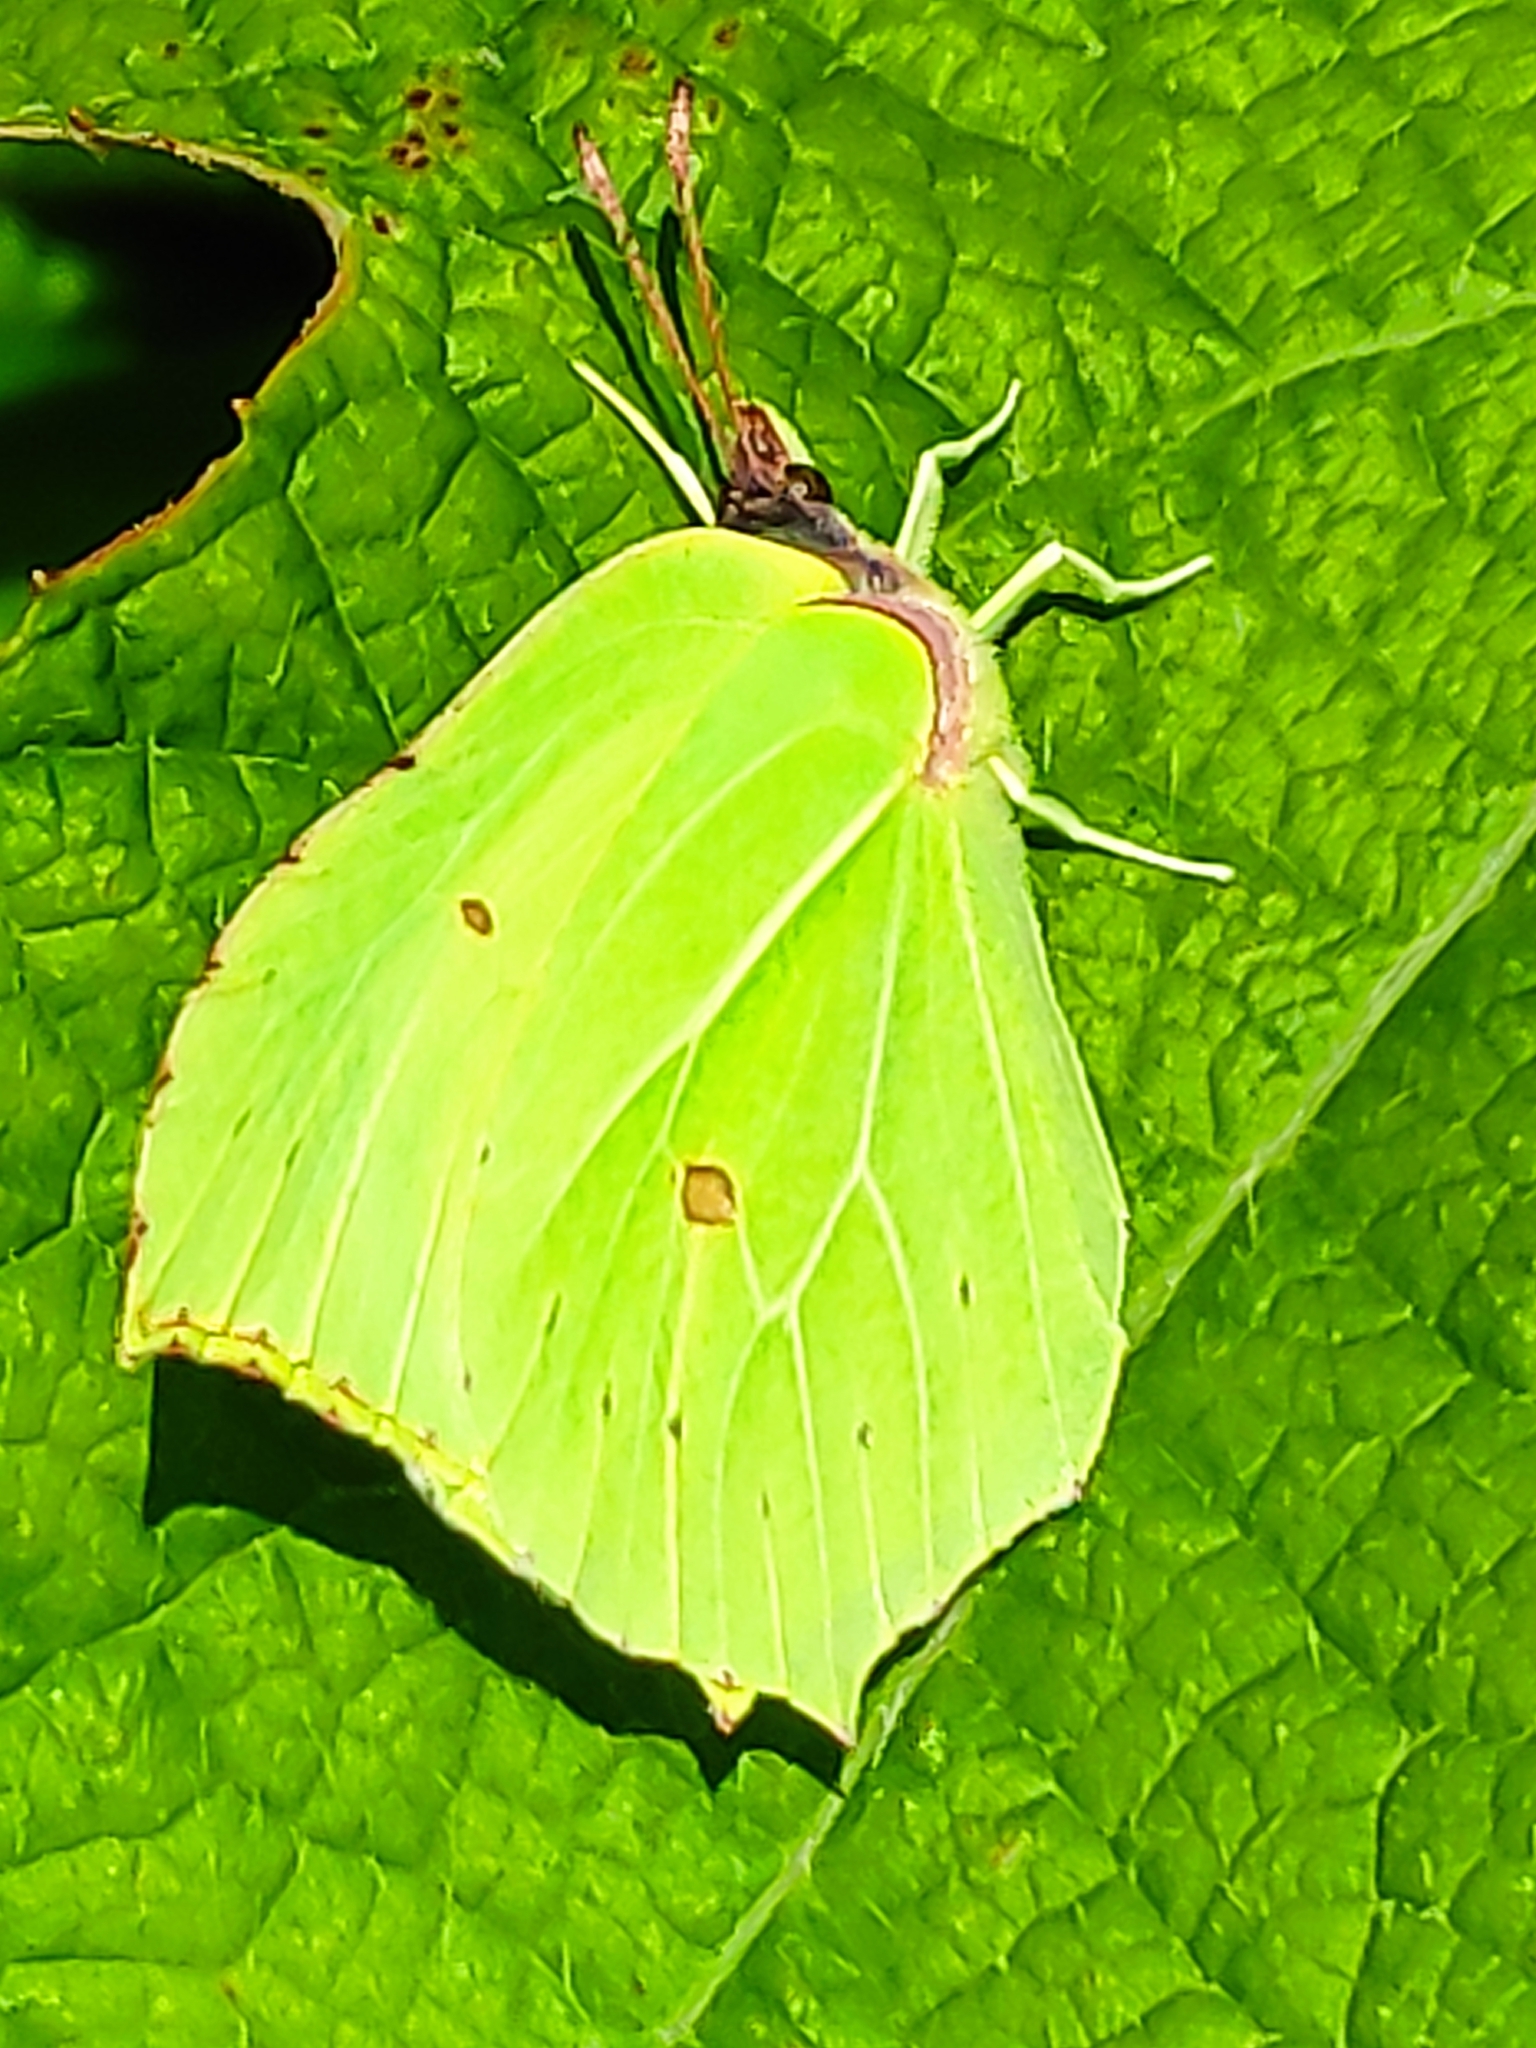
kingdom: Animalia
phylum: Arthropoda
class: Insecta
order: Lepidoptera
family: Pieridae
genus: Gonepteryx
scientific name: Gonepteryx rhamni
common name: Brimstone
